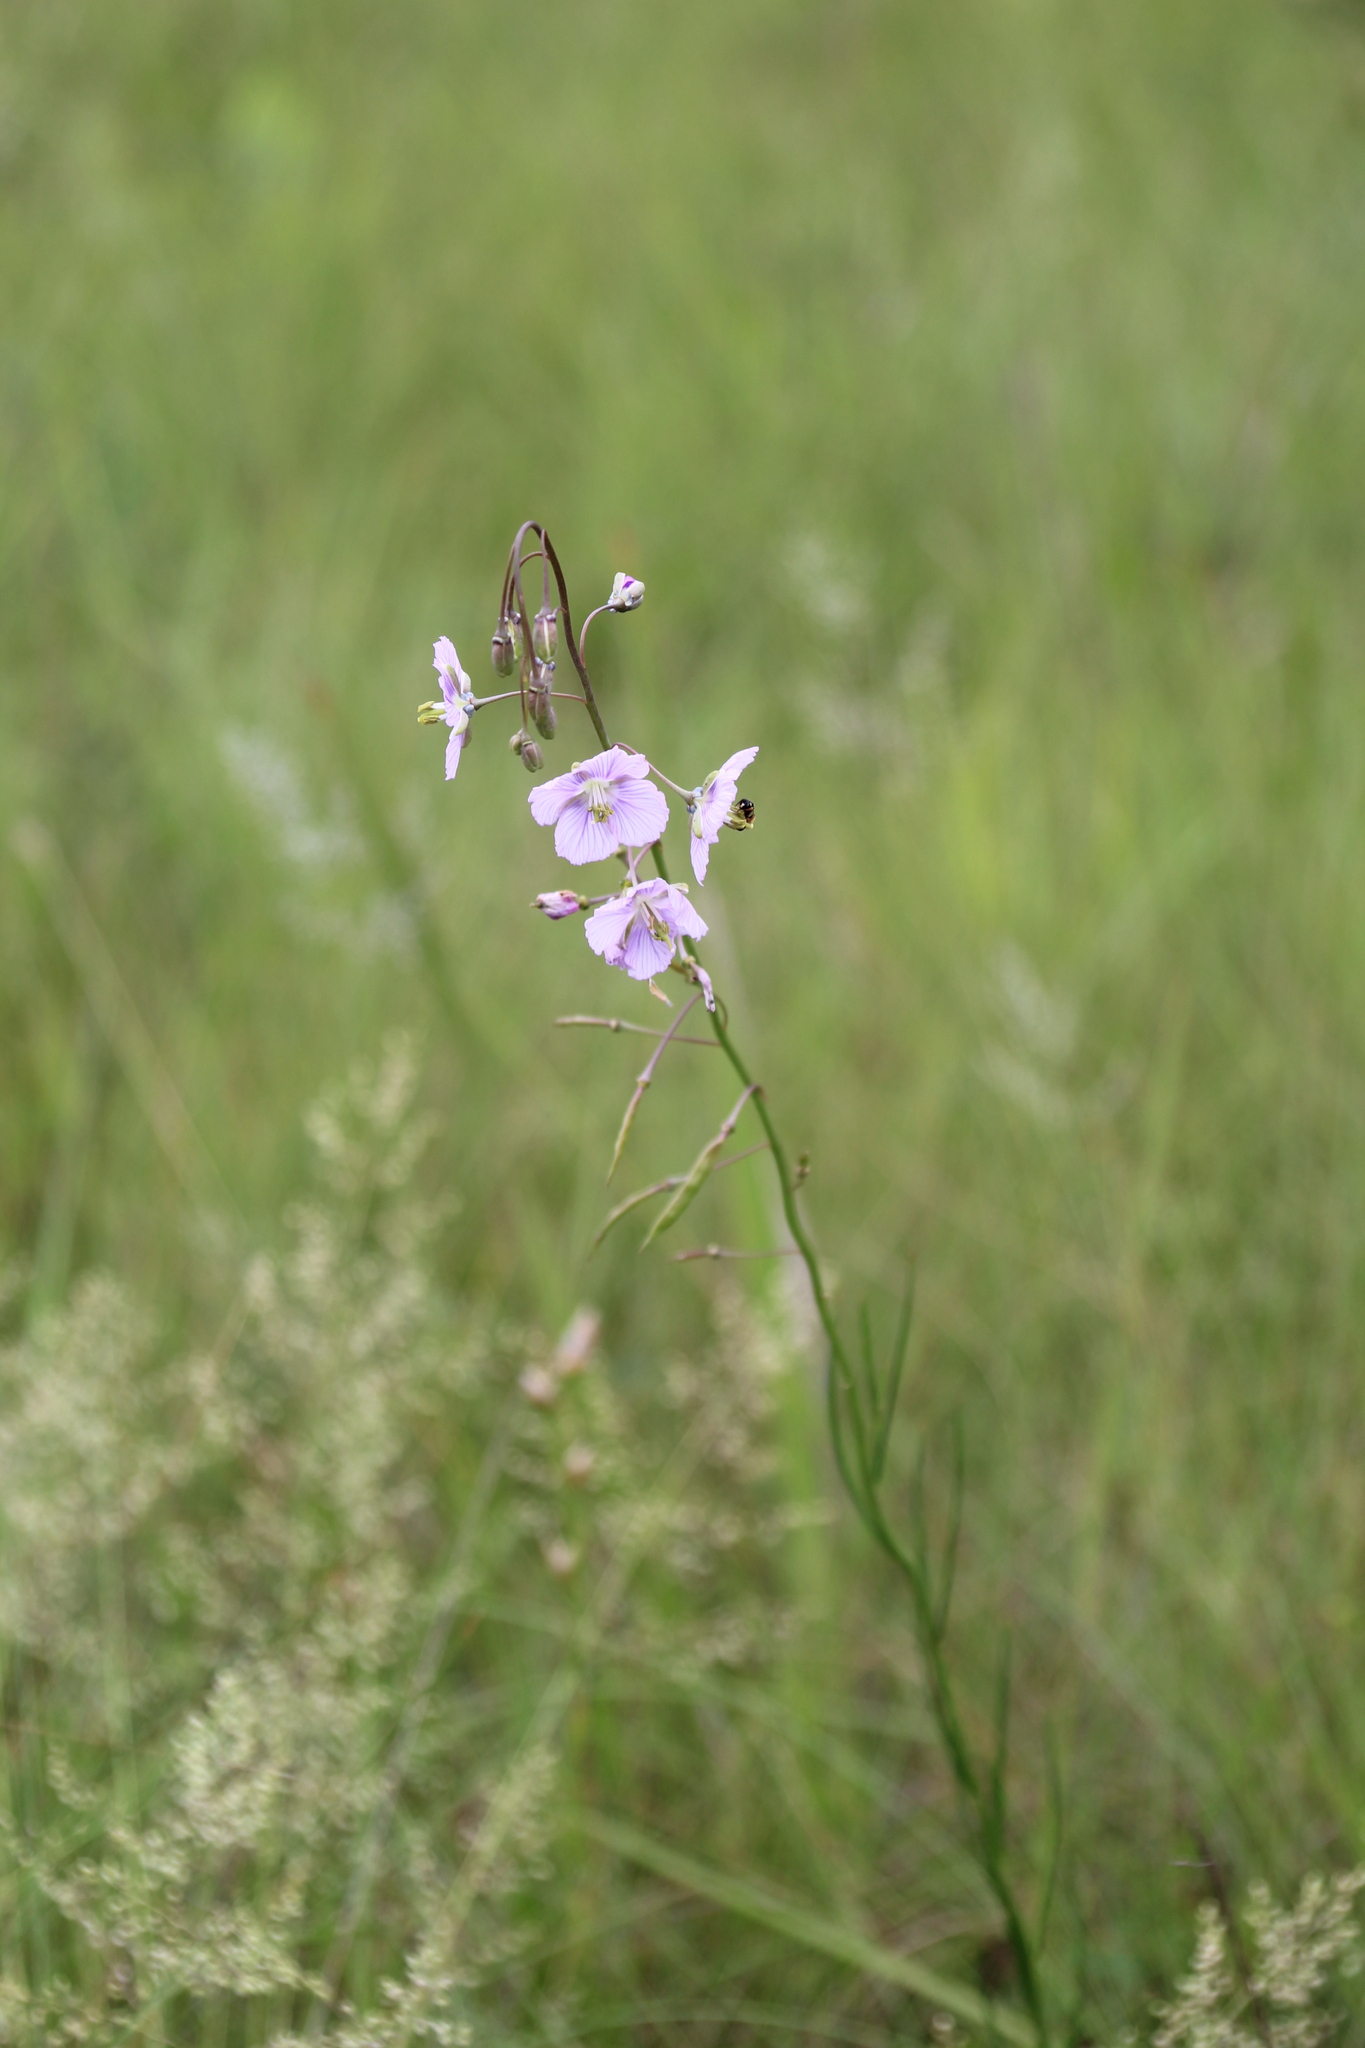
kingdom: Plantae
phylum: Tracheophyta
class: Magnoliopsida
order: Brassicales
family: Brassicaceae
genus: Heliophila
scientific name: Heliophila rigidiuscula
